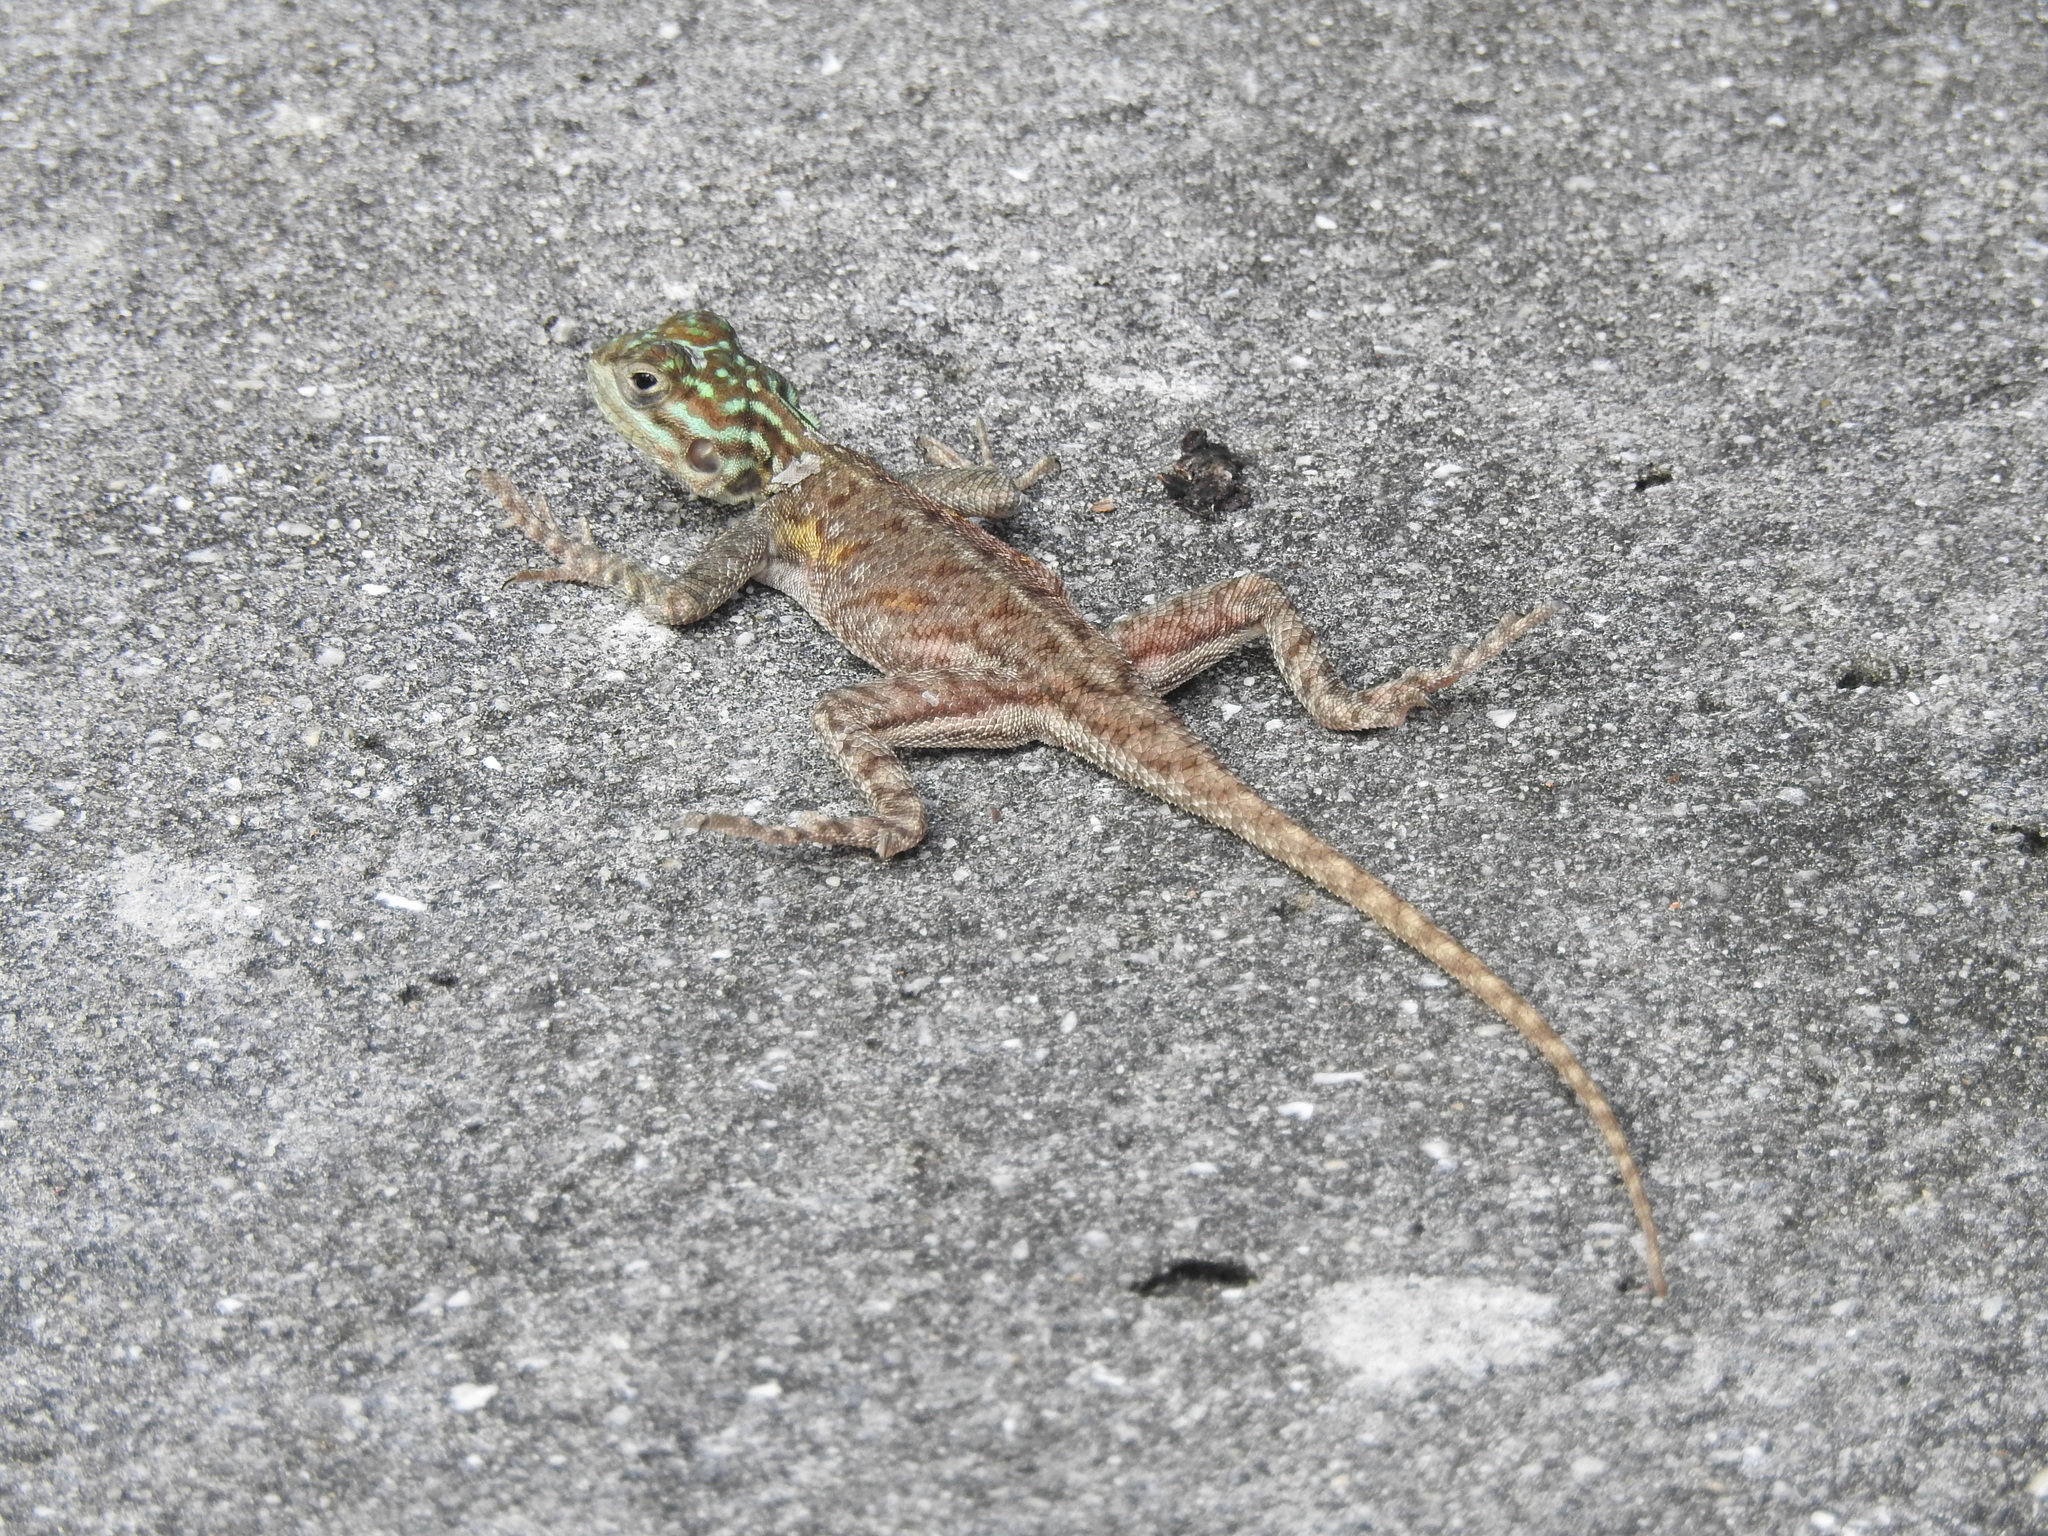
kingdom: Animalia
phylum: Chordata
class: Squamata
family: Agamidae
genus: Agama
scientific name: Agama picticauda
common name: Red-headed agama
